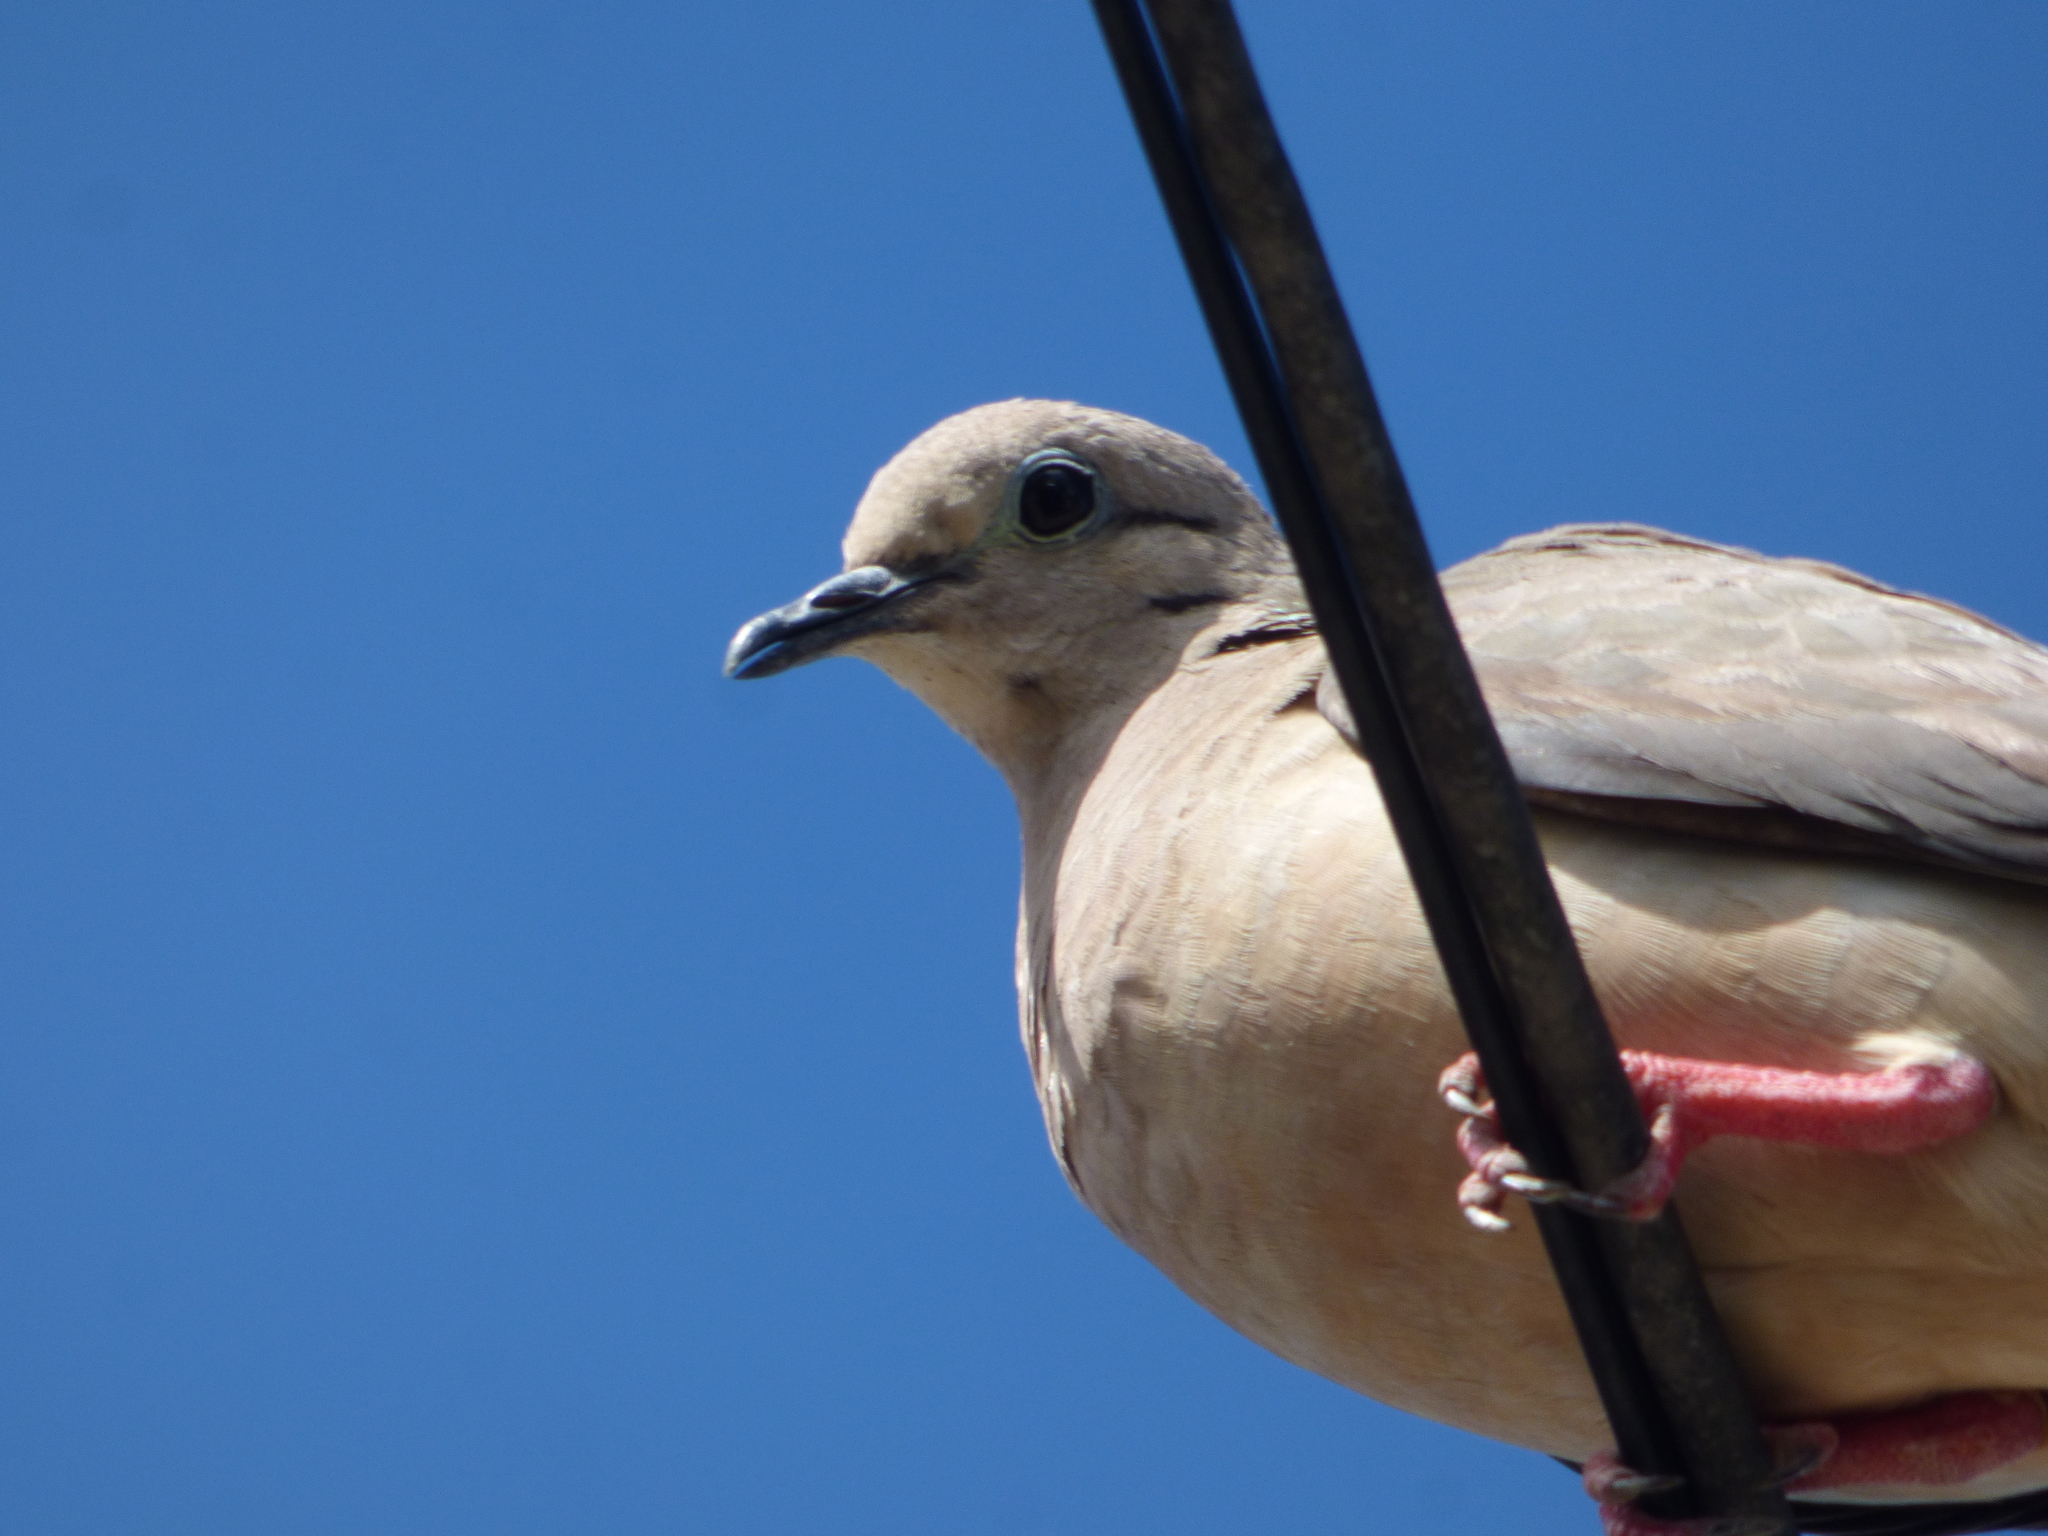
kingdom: Animalia
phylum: Chordata
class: Aves
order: Columbiformes
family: Columbidae
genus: Zenaida
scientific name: Zenaida auriculata
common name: Eared dove
